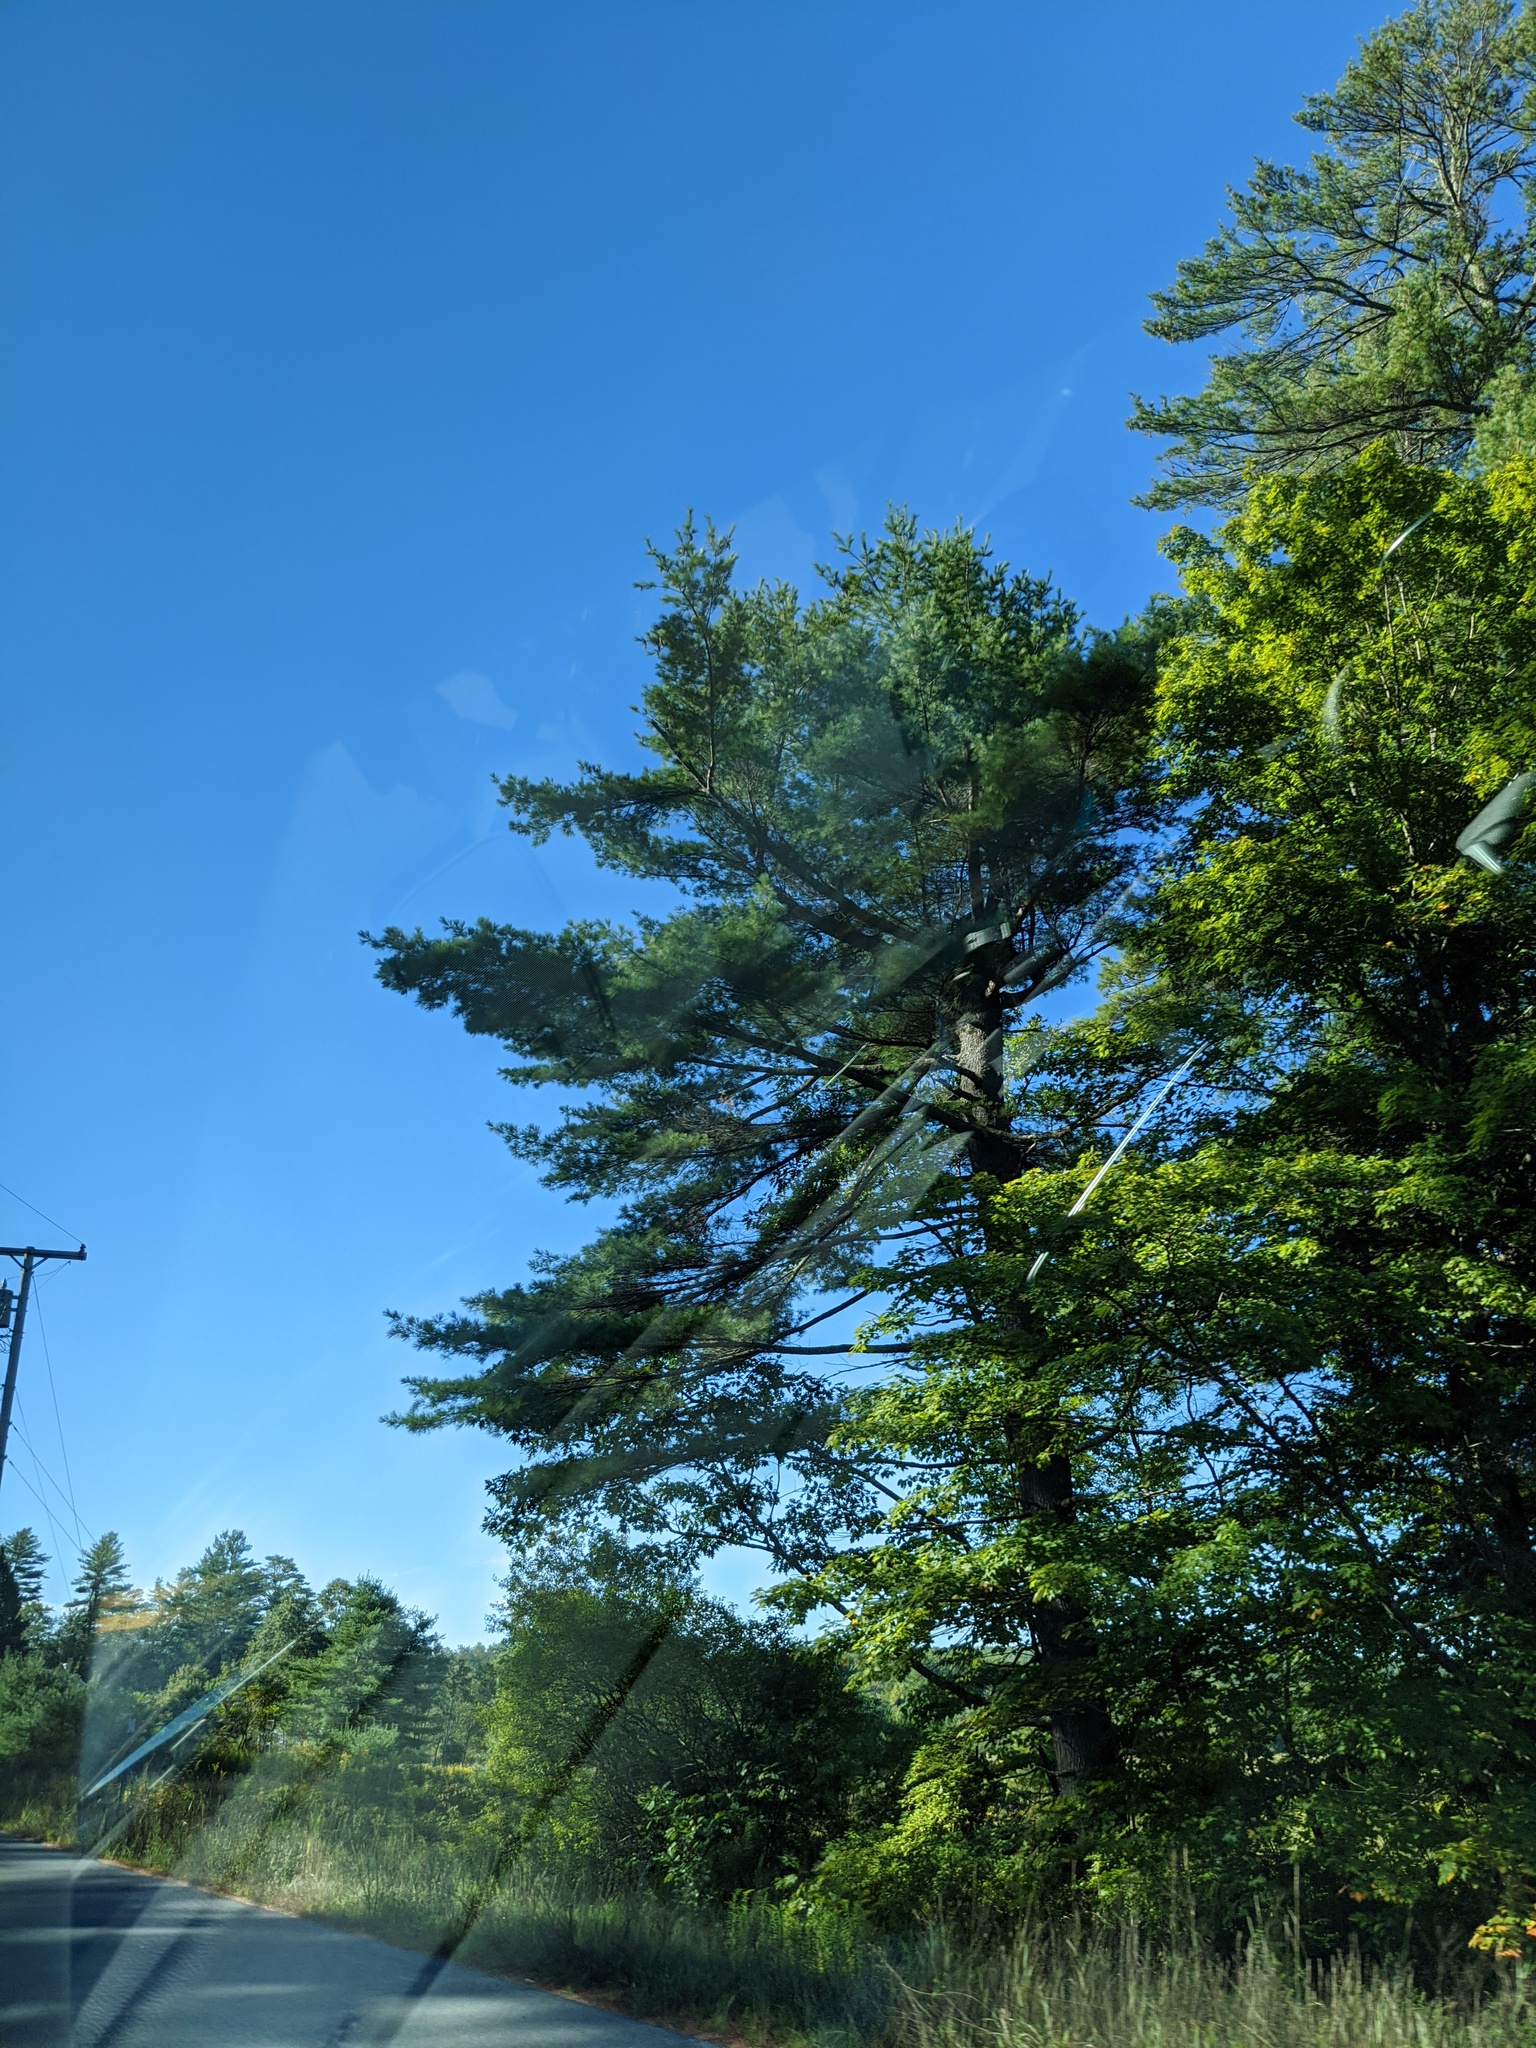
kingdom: Plantae
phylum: Tracheophyta
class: Pinopsida
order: Pinales
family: Pinaceae
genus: Pinus
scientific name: Pinus strobus
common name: Weymouth pine
